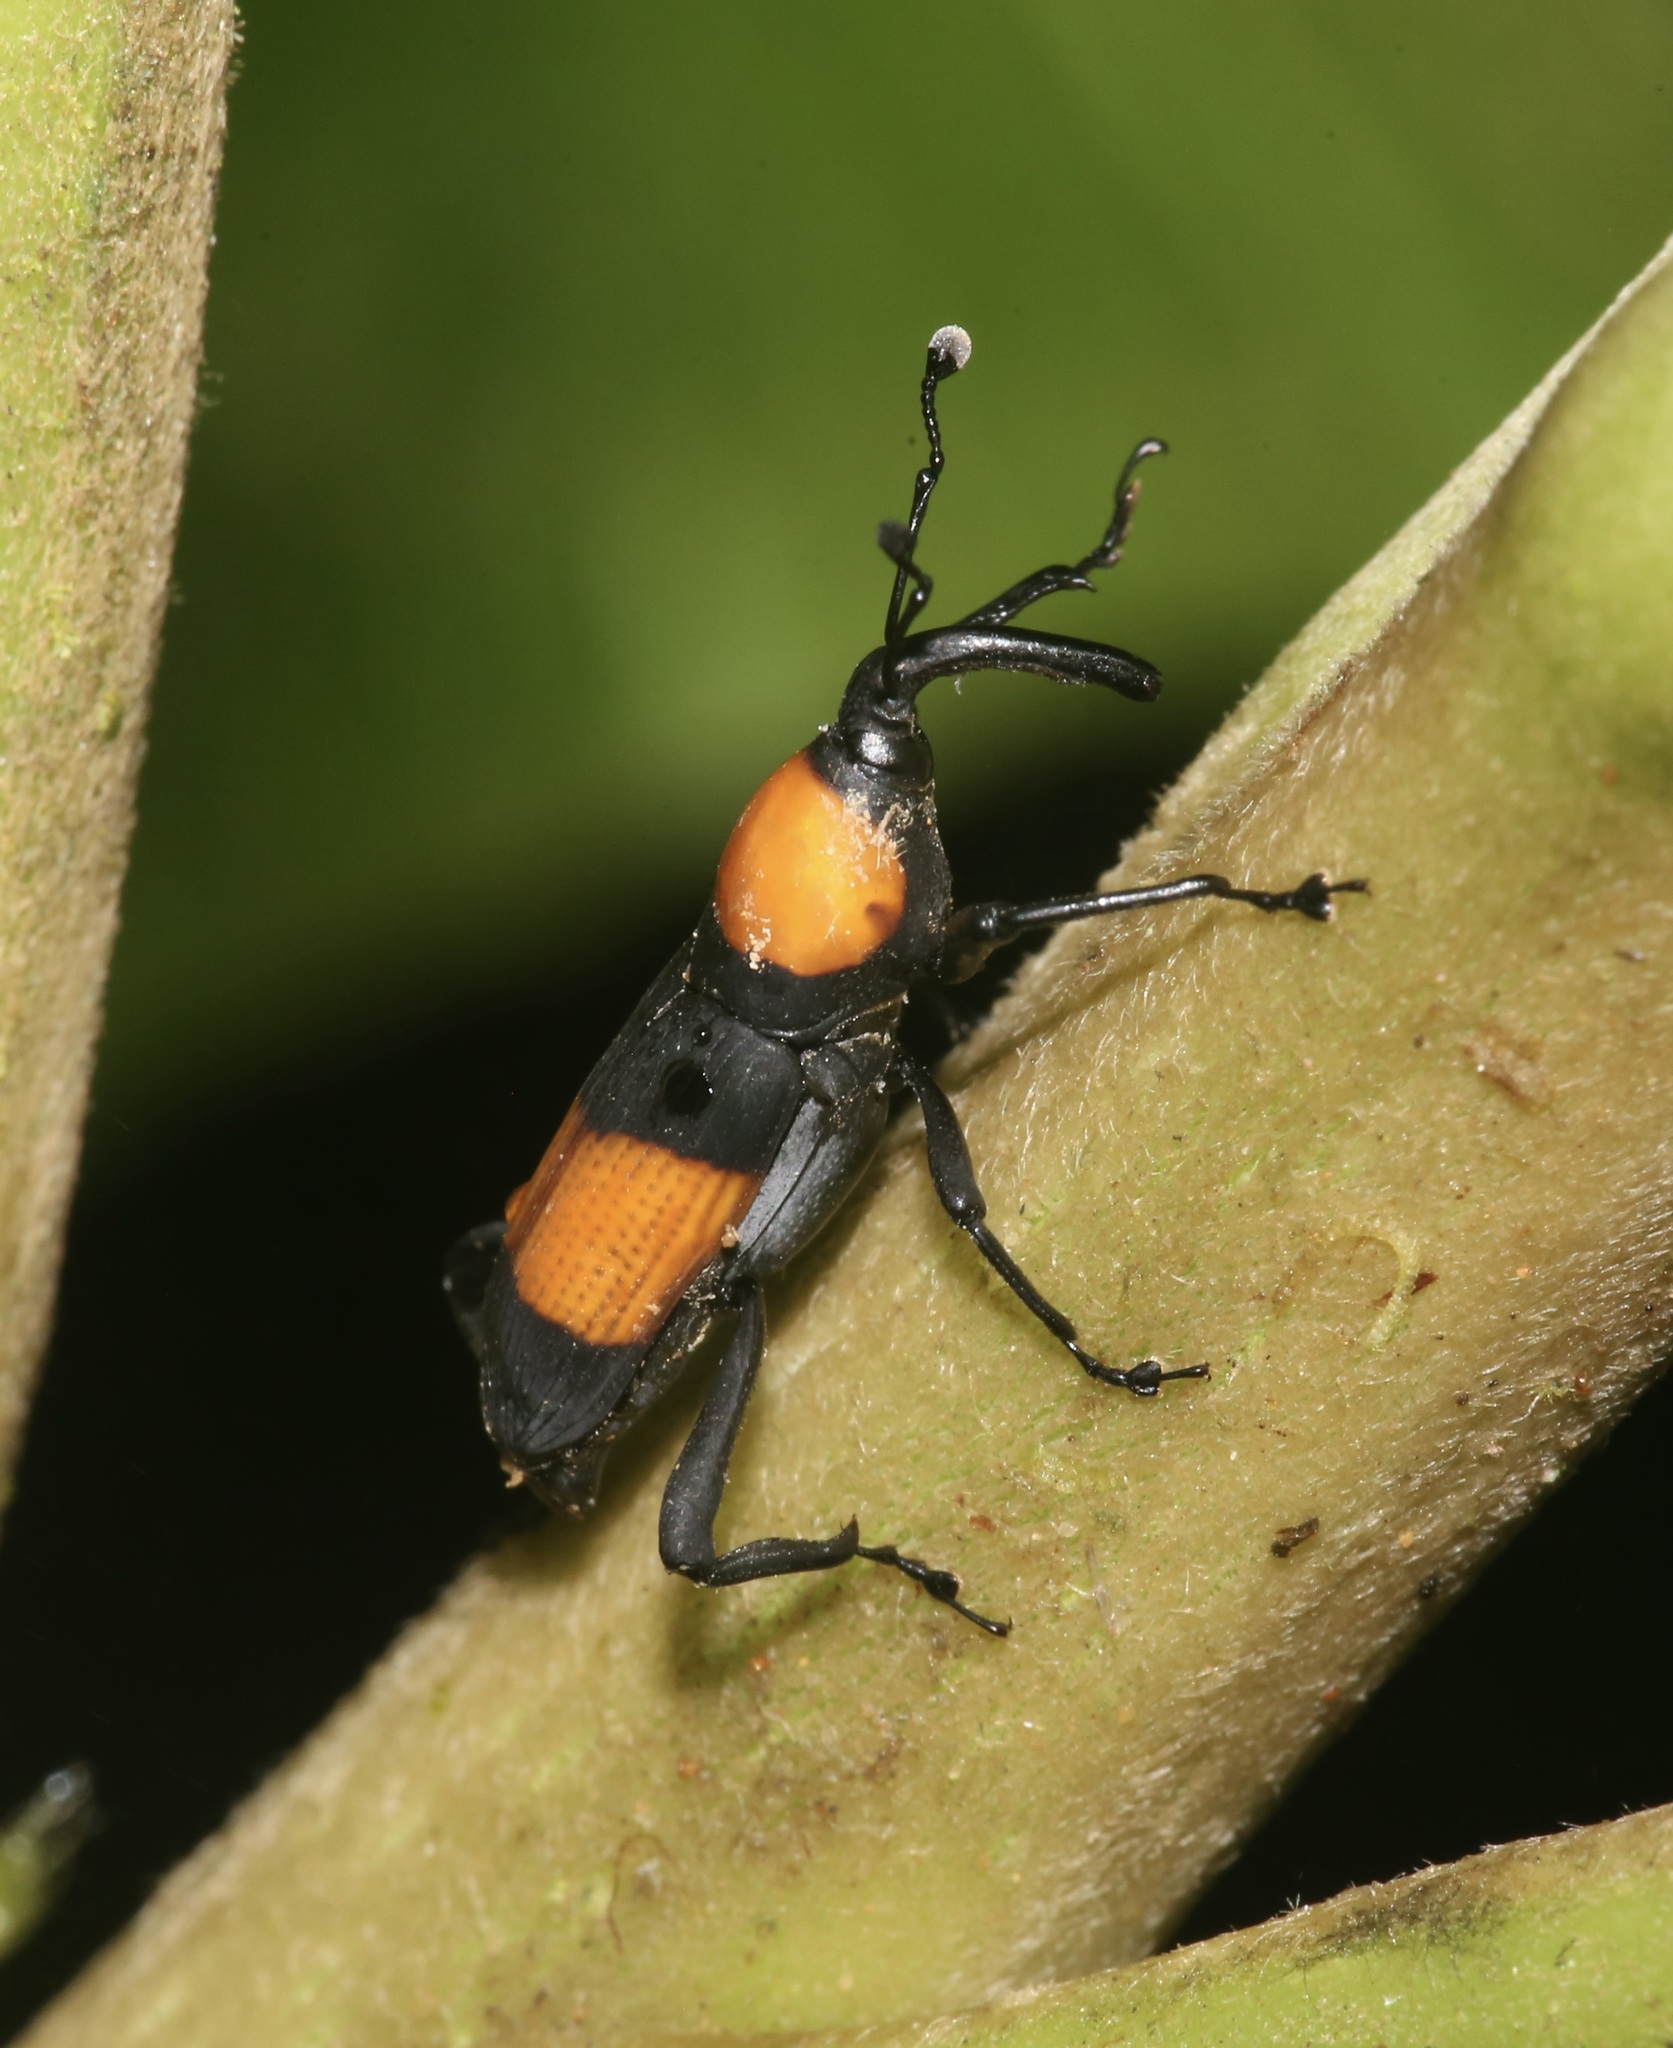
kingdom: Animalia
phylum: Arthropoda
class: Insecta
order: Coleoptera
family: Dryophthoridae
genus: Rhodobaenus
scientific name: Rhodobaenus augustinus
